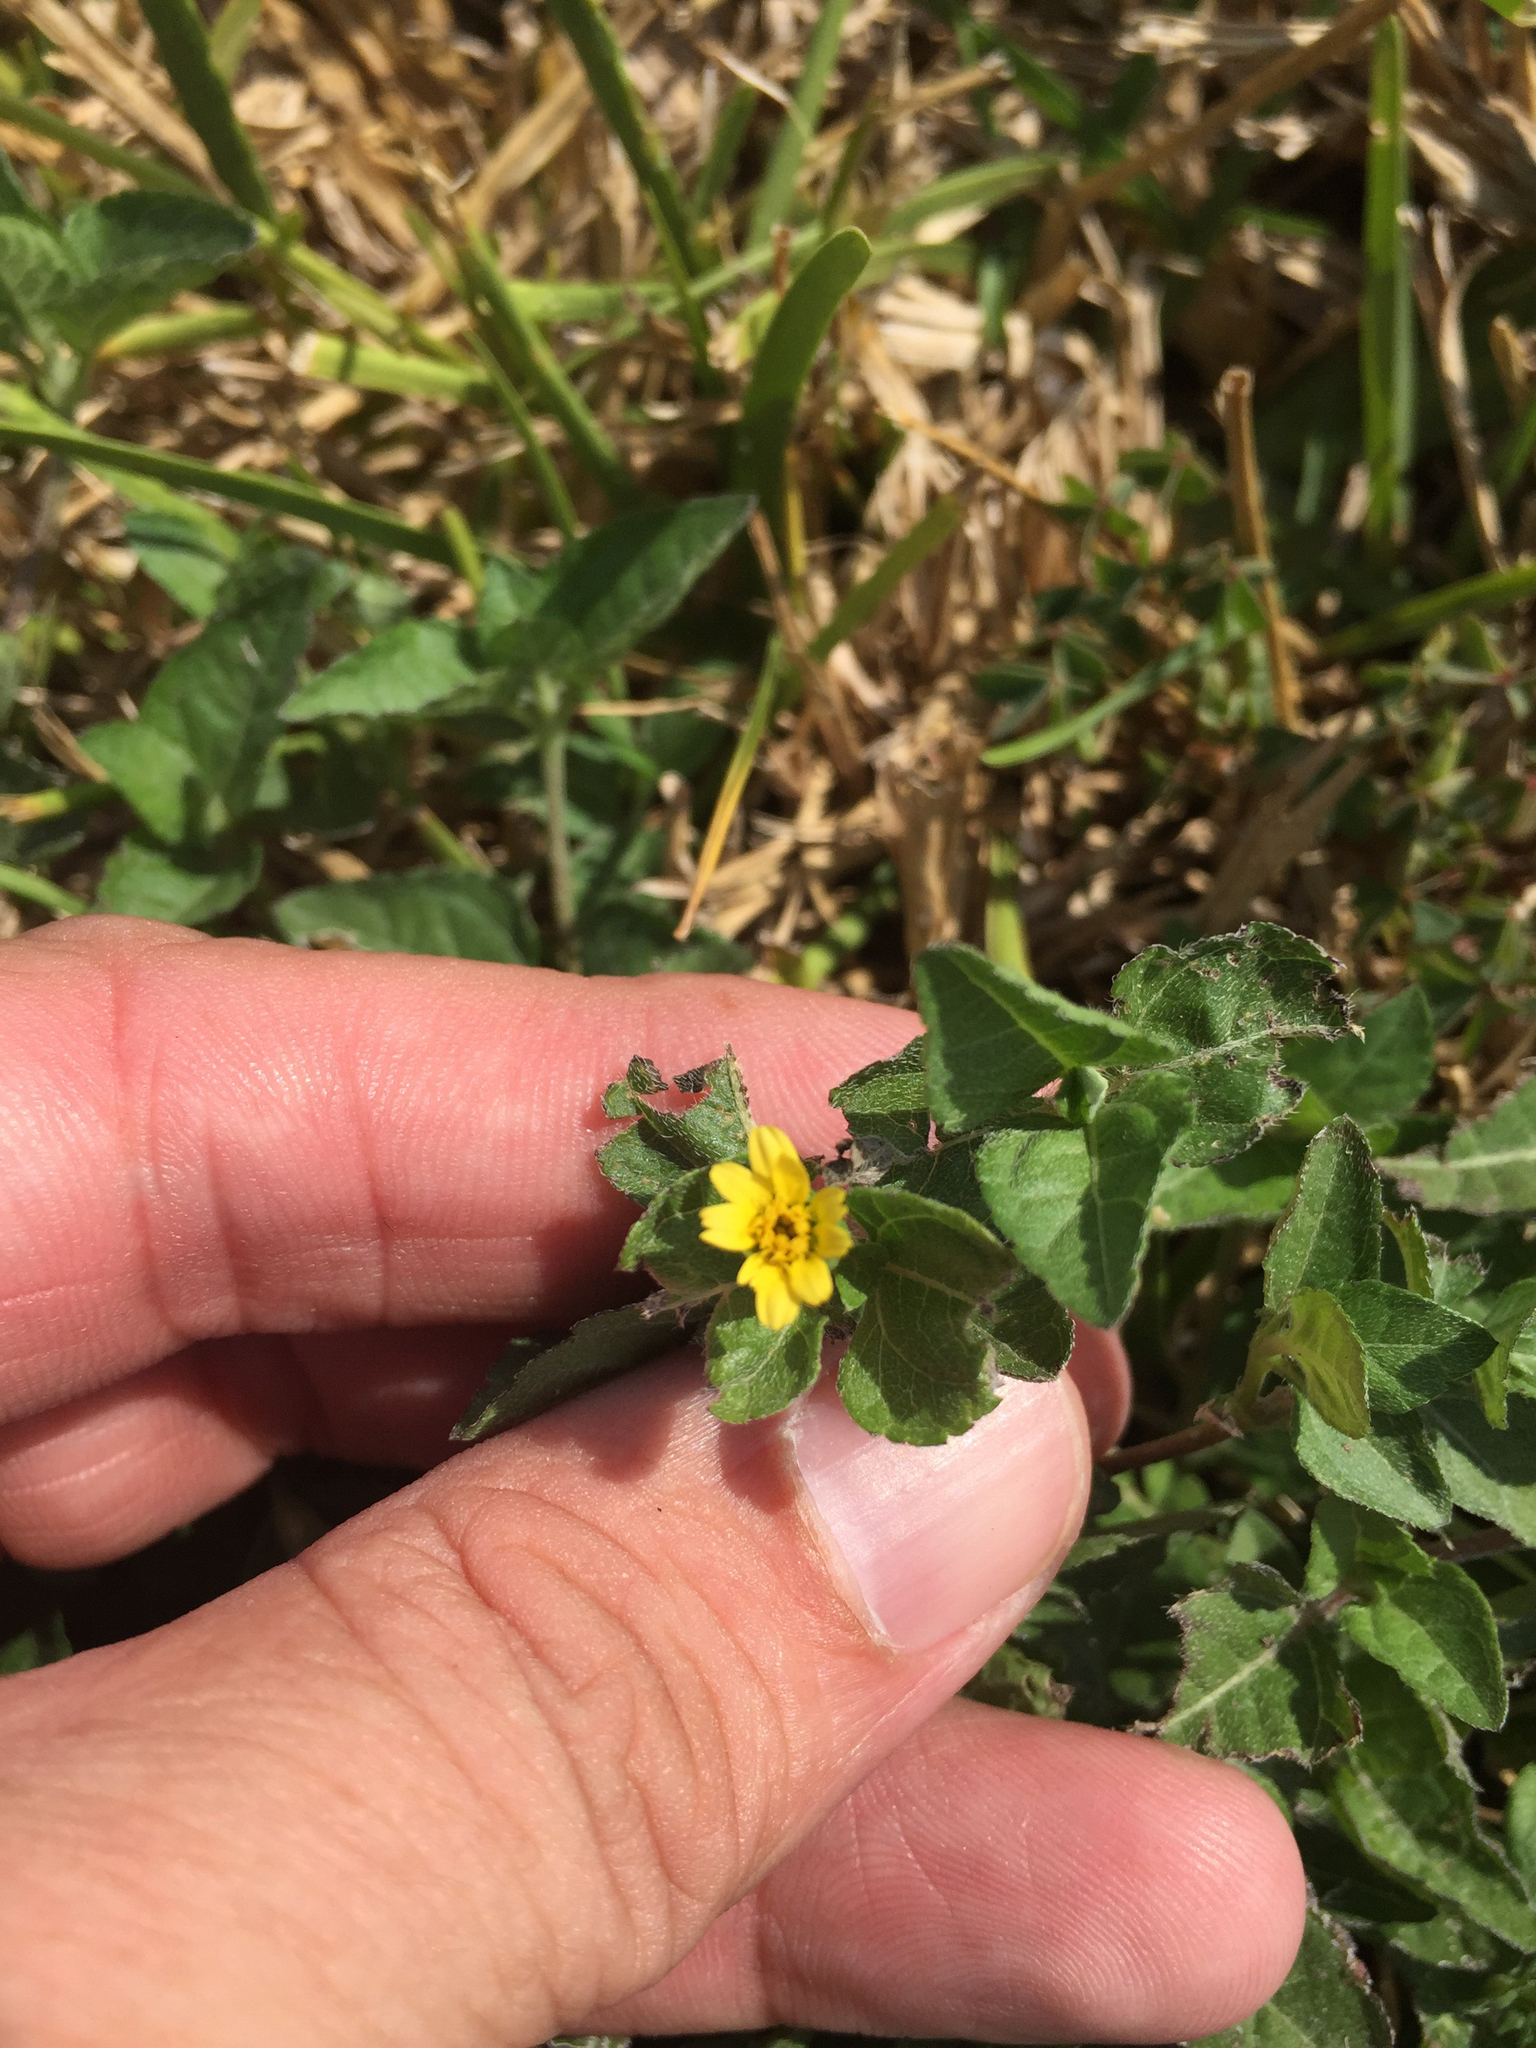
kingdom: Plantae
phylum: Tracheophyta
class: Magnoliopsida
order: Asterales
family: Asteraceae
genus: Calyptocarpus
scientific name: Calyptocarpus vialis
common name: Straggler daisy
